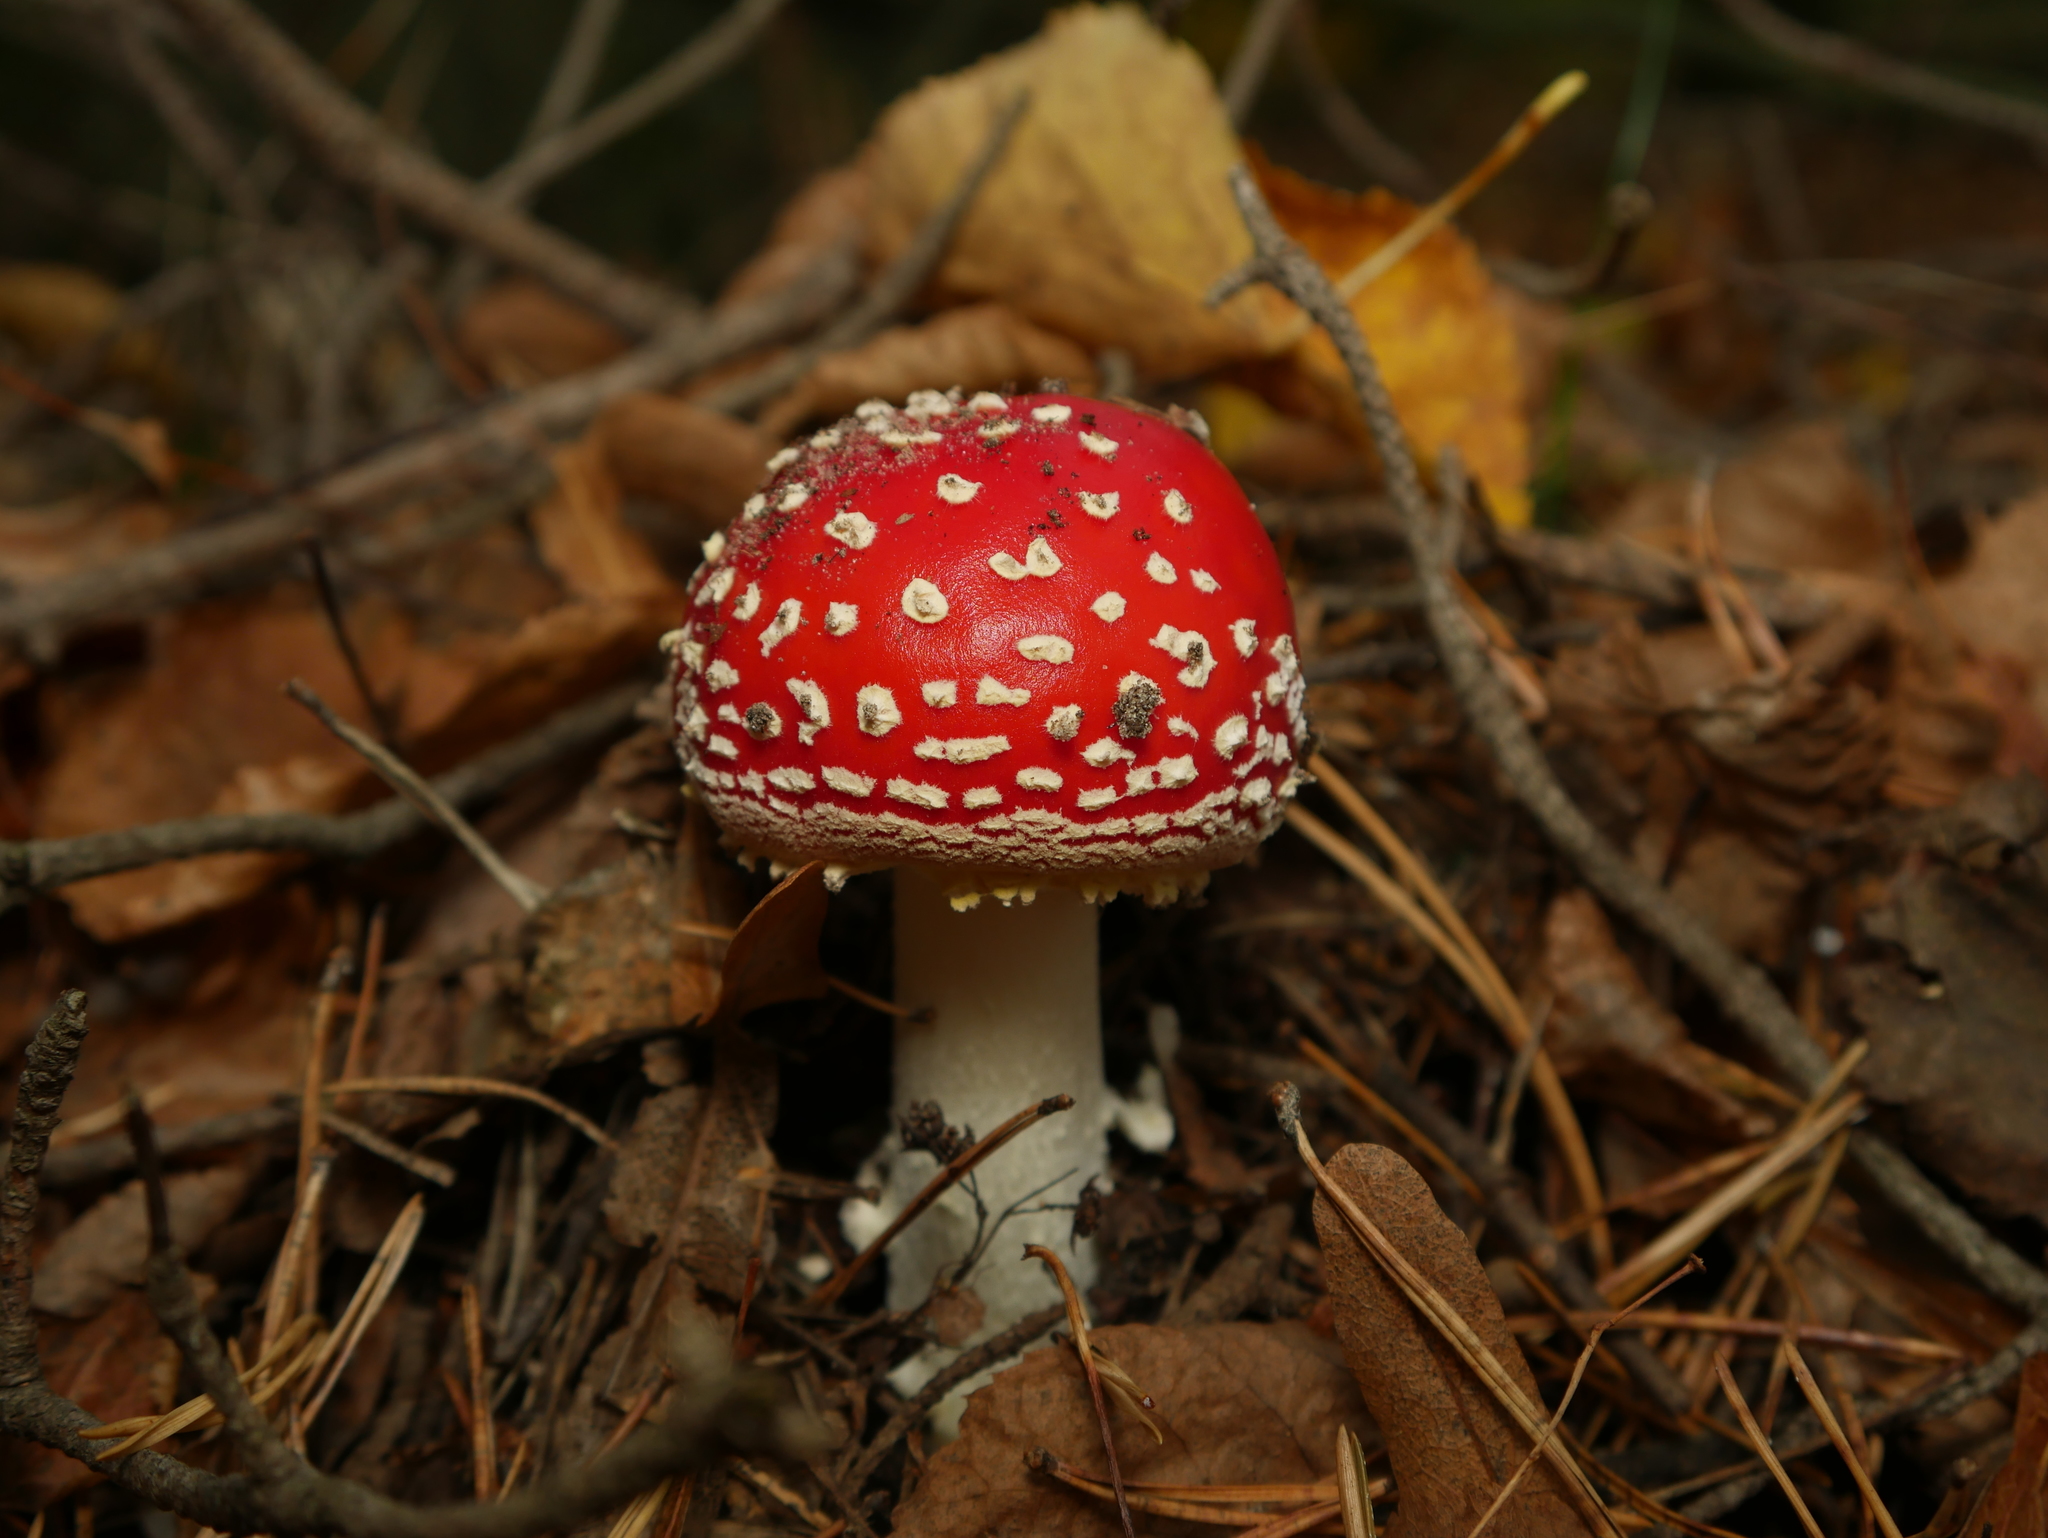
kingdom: Fungi
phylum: Basidiomycota
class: Agaricomycetes
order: Agaricales
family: Amanitaceae
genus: Amanita
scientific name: Amanita muscaria
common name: Fly agaric
